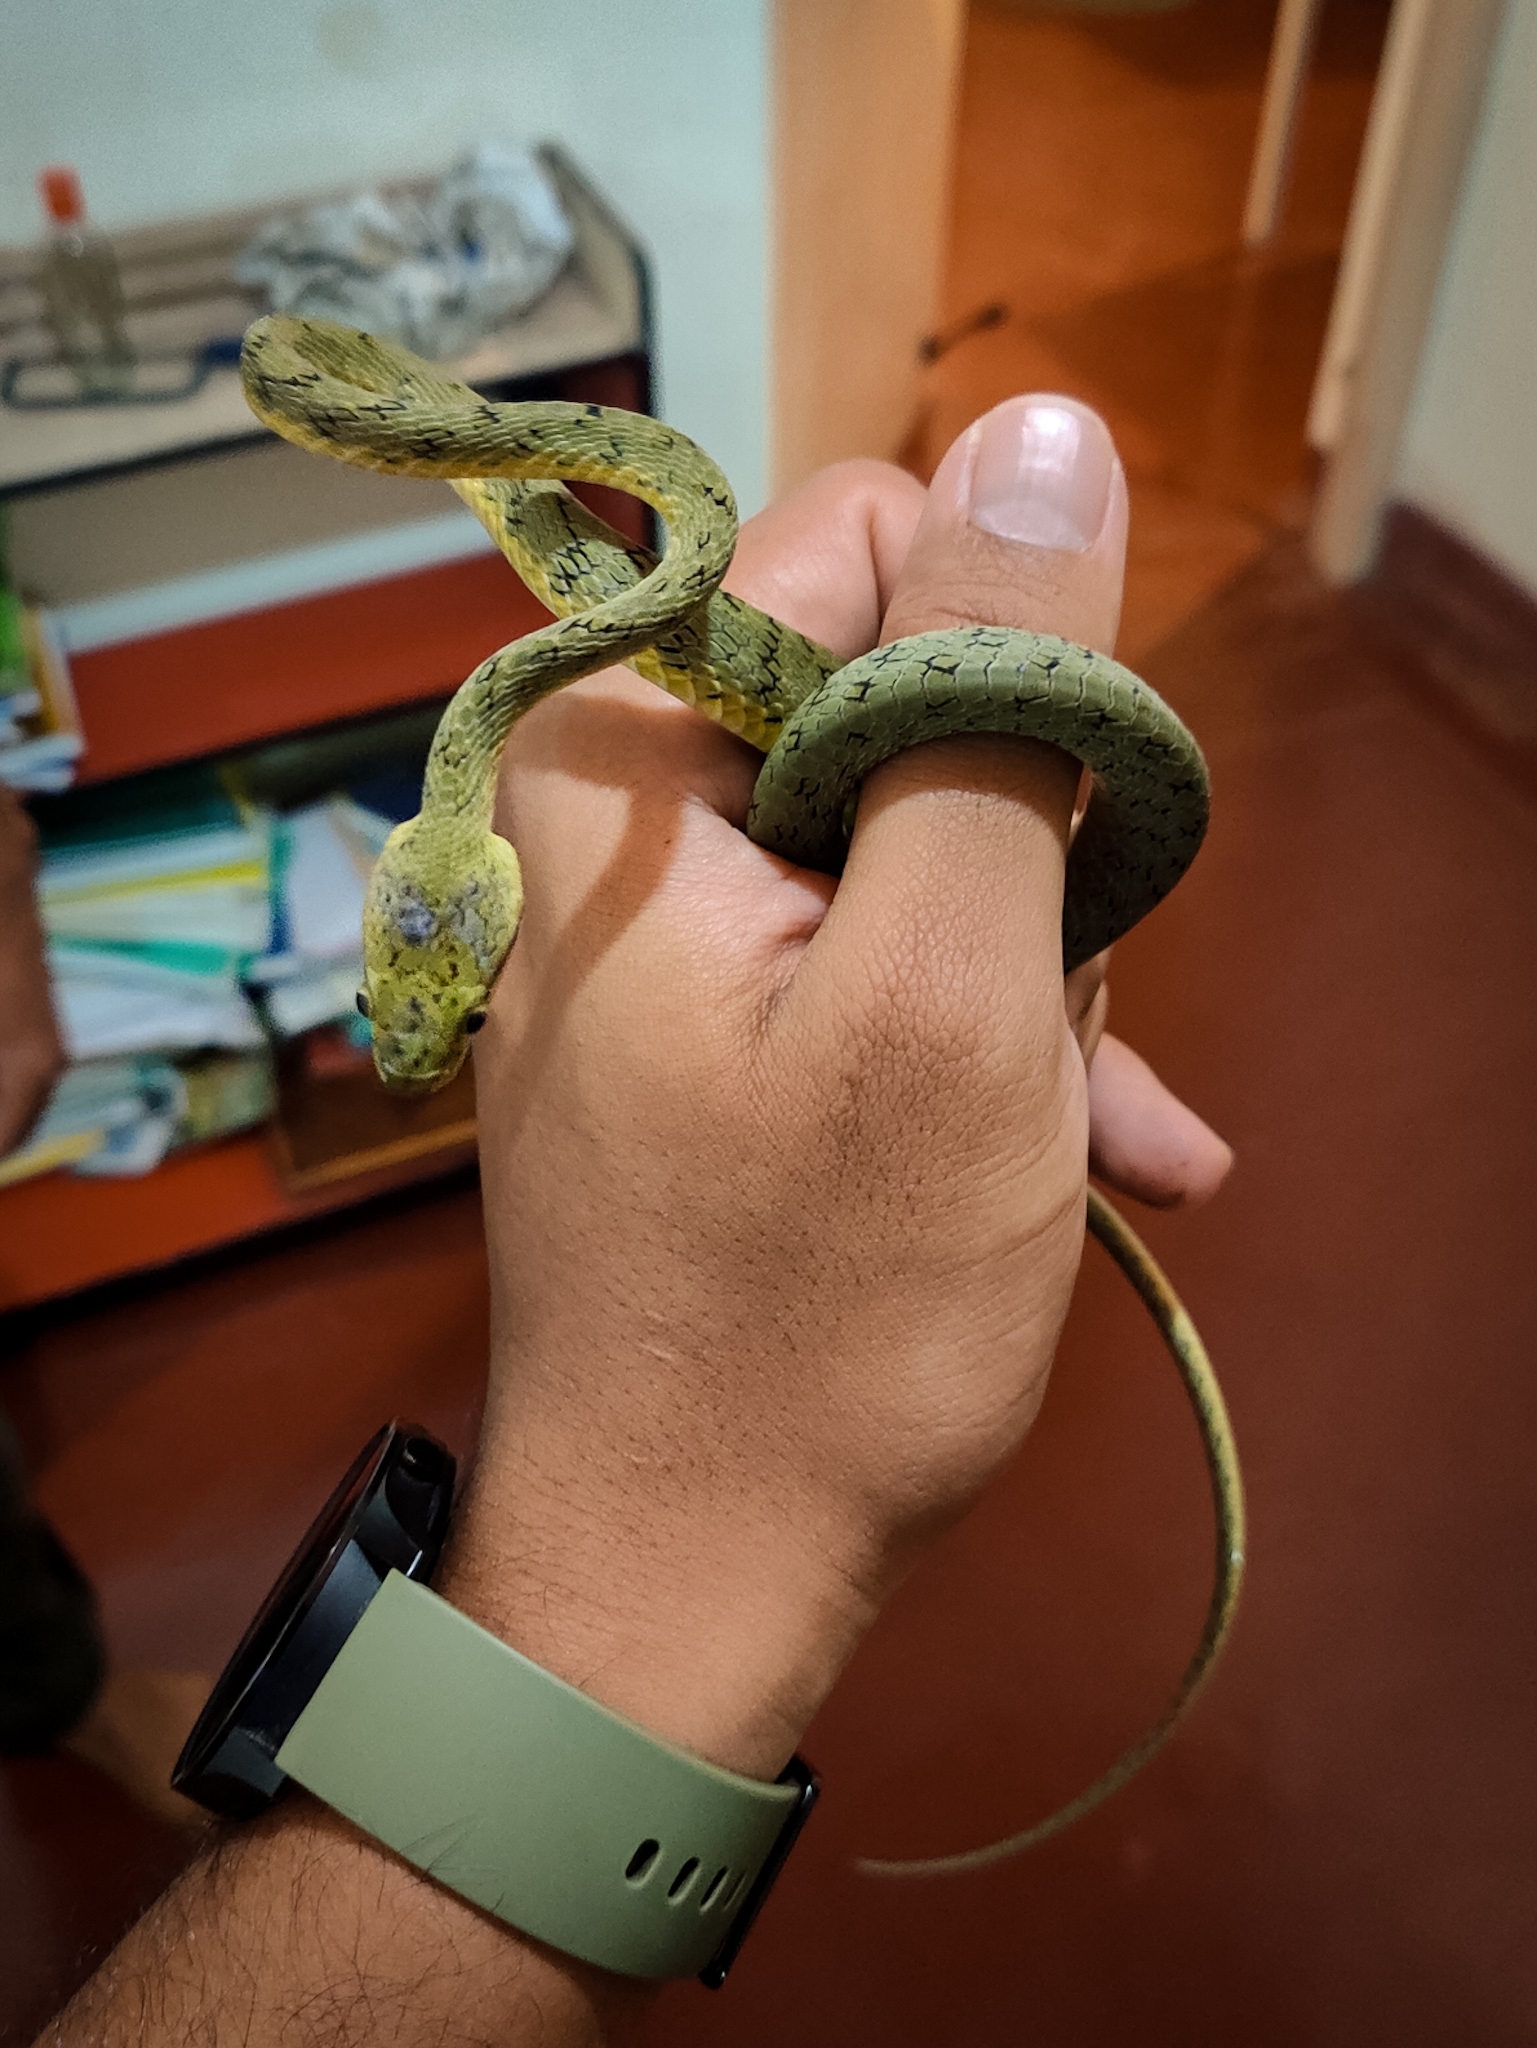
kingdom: Animalia
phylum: Chordata
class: Squamata
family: Colubridae
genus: Boiga
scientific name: Boiga flaviviridis
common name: Yellow-green cat snake
